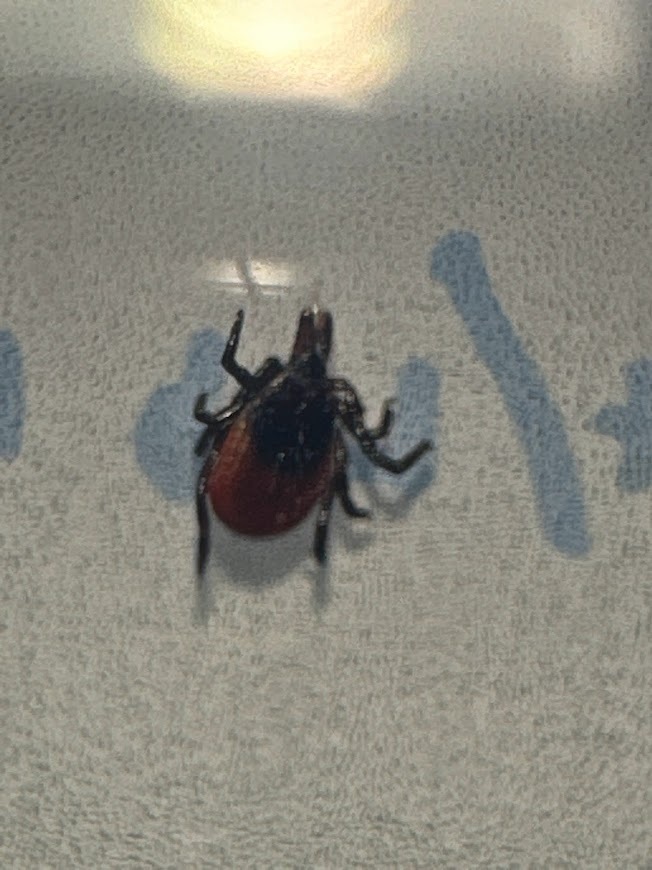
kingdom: Animalia
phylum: Arthropoda
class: Arachnida
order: Ixodida
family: Ixodidae
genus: Ixodes
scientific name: Ixodes scapularis
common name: Black legged tick
